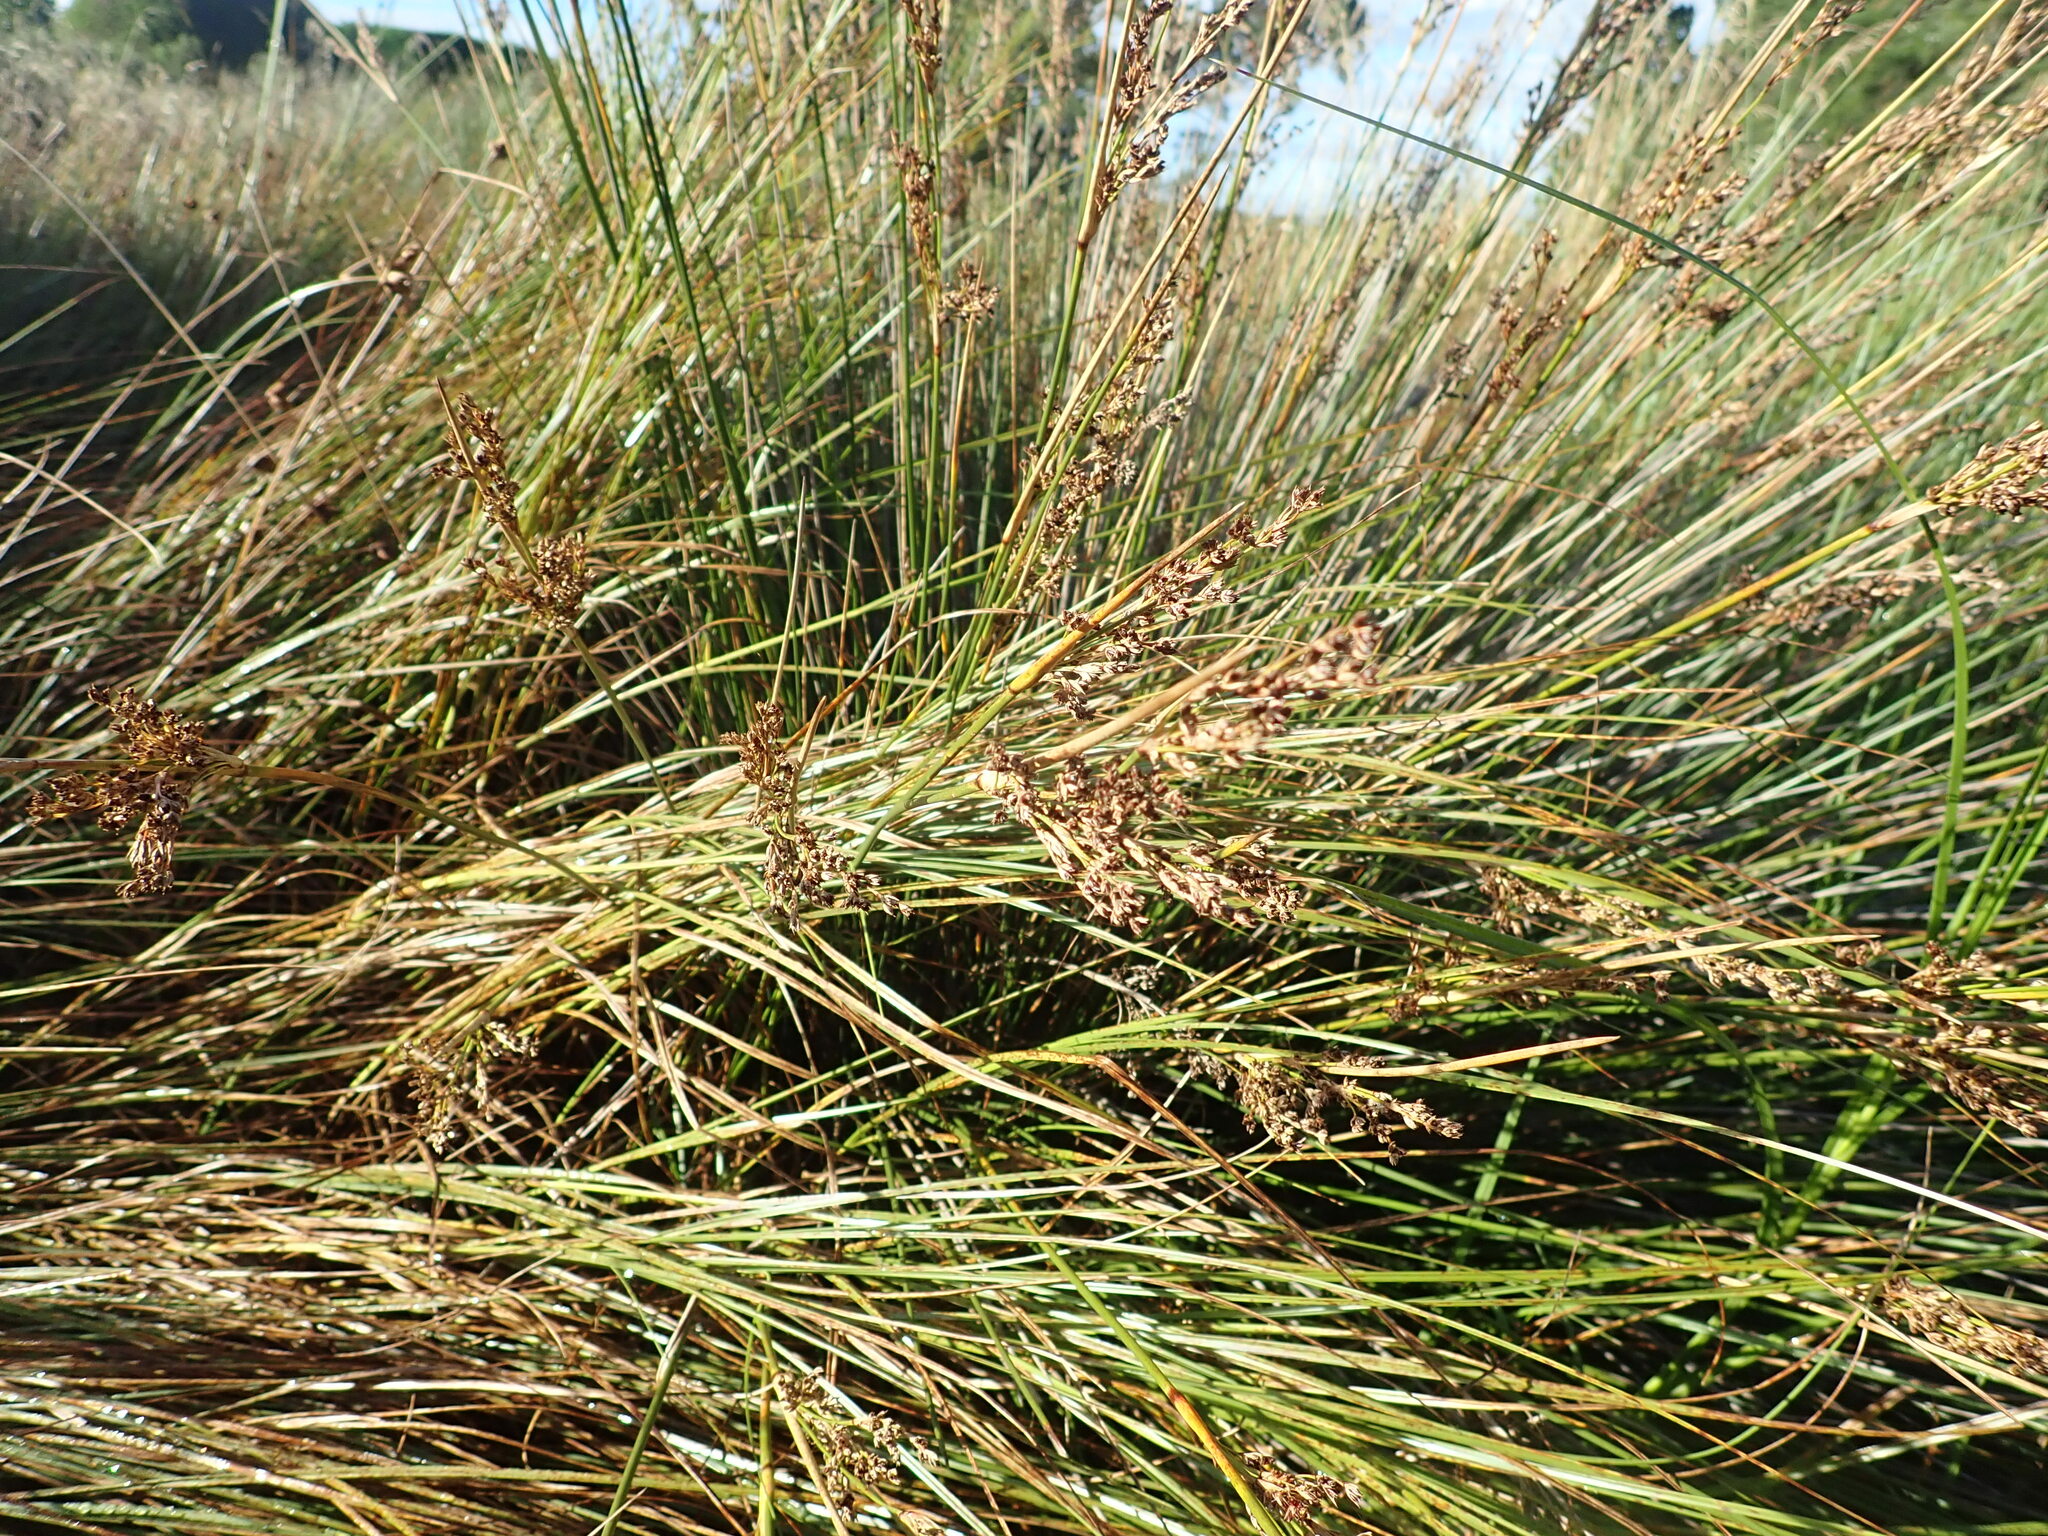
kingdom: Plantae
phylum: Tracheophyta
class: Liliopsida
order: Poales
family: Juncaceae
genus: Juncus
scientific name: Juncus kraussii
